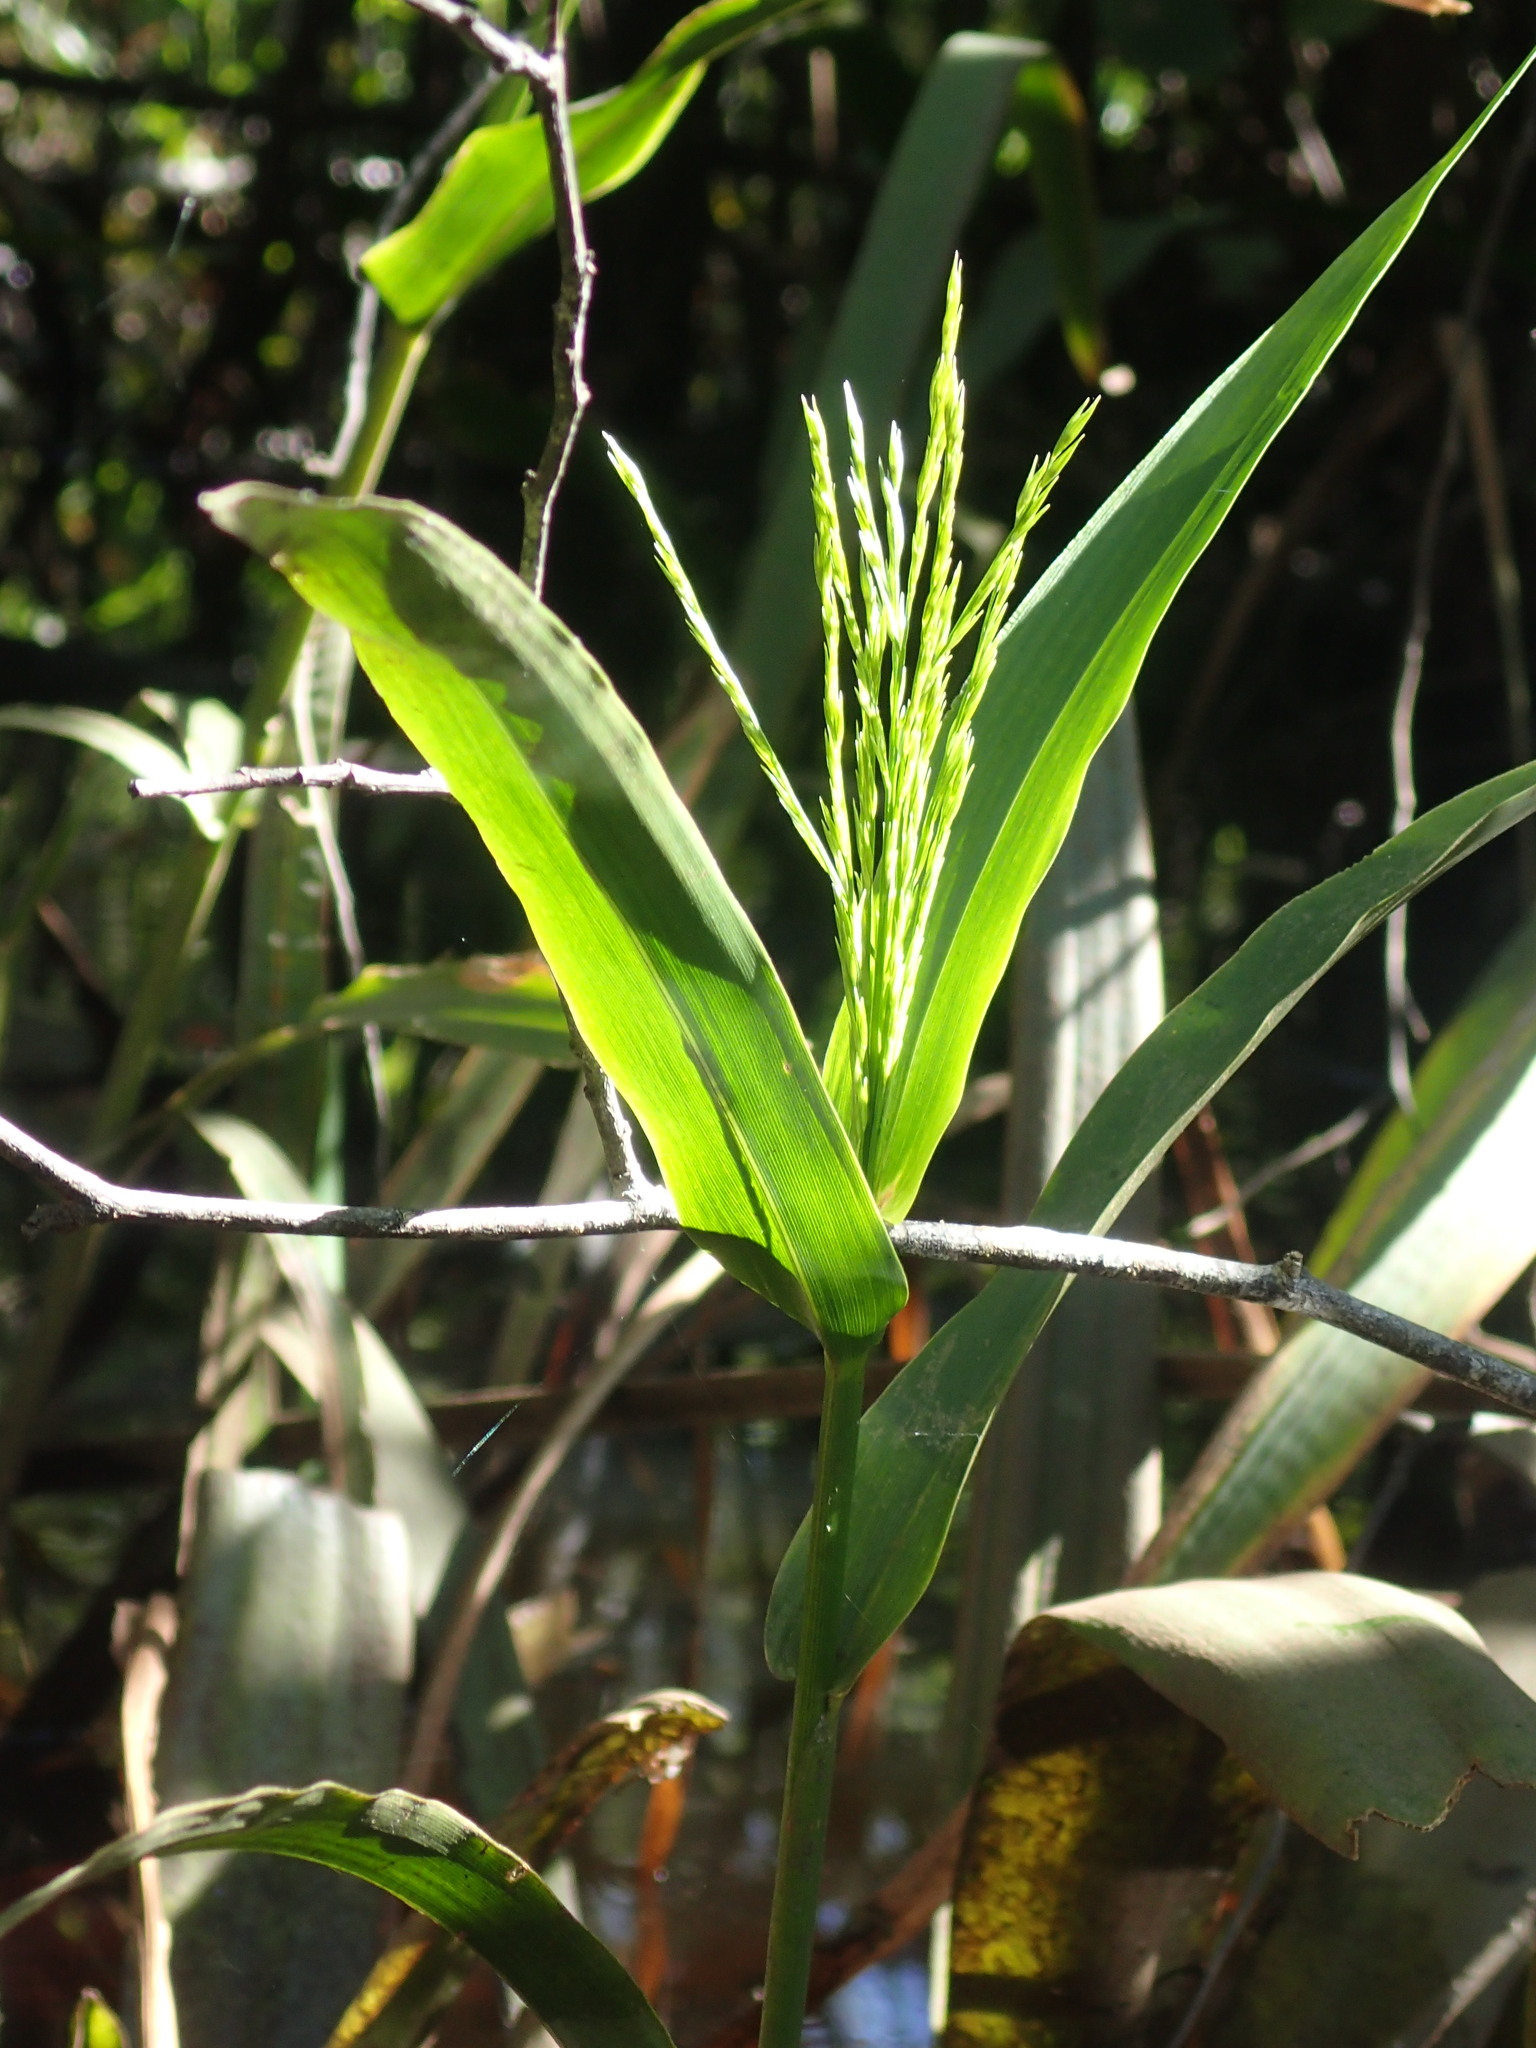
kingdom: Plantae
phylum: Tracheophyta
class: Liliopsida
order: Poales
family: Poaceae
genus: Panicum
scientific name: Panicum gymnocarpon
